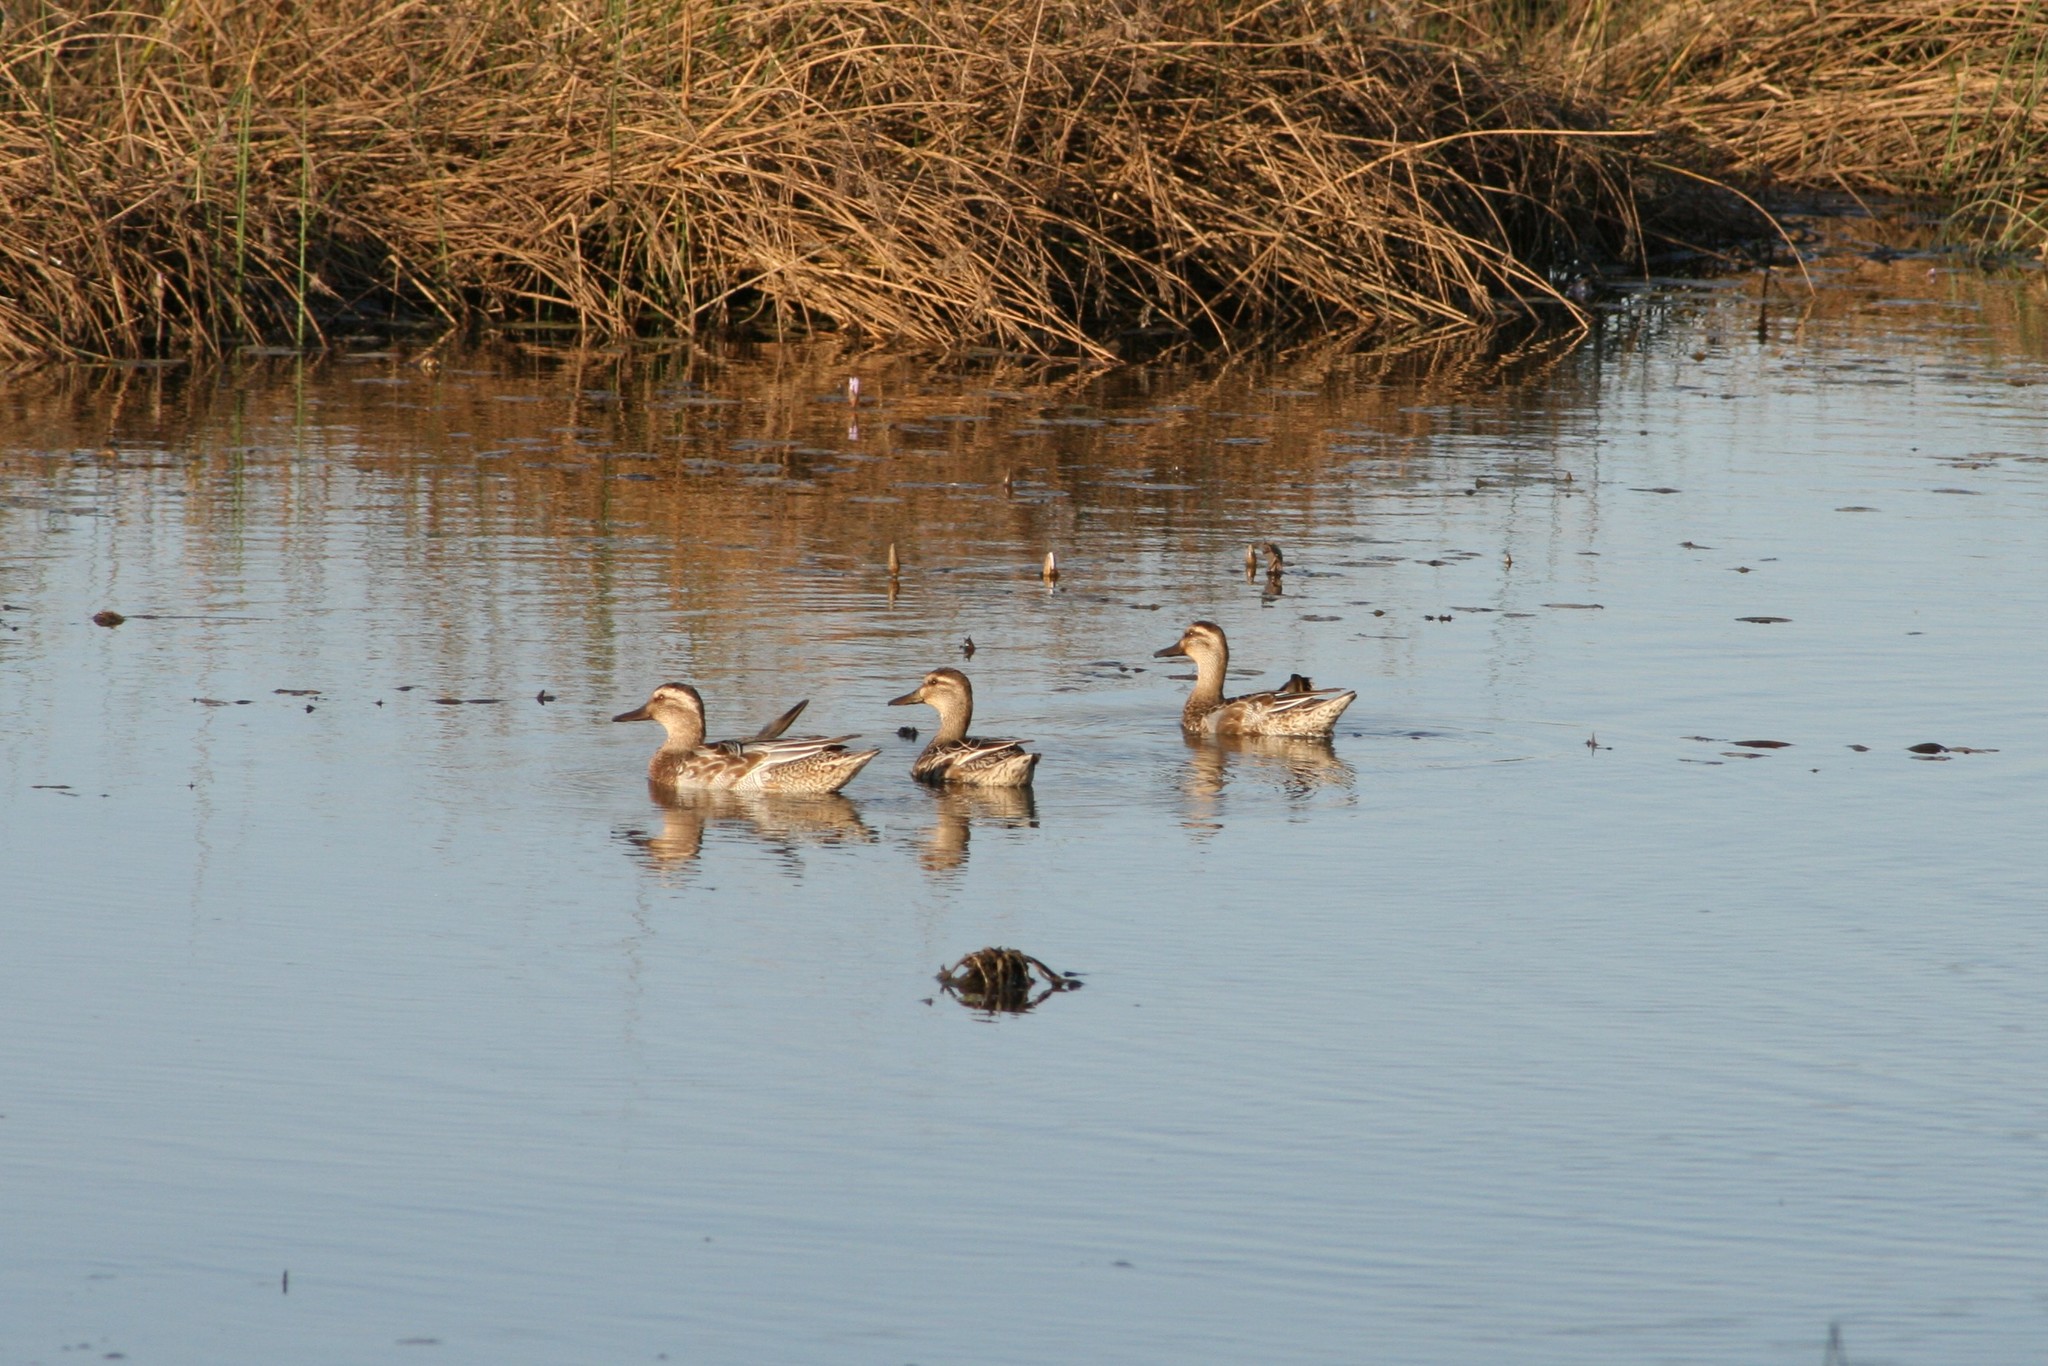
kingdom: Animalia
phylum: Chordata
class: Aves
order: Anseriformes
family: Anatidae
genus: Spatula
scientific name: Spatula querquedula
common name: Garganey
